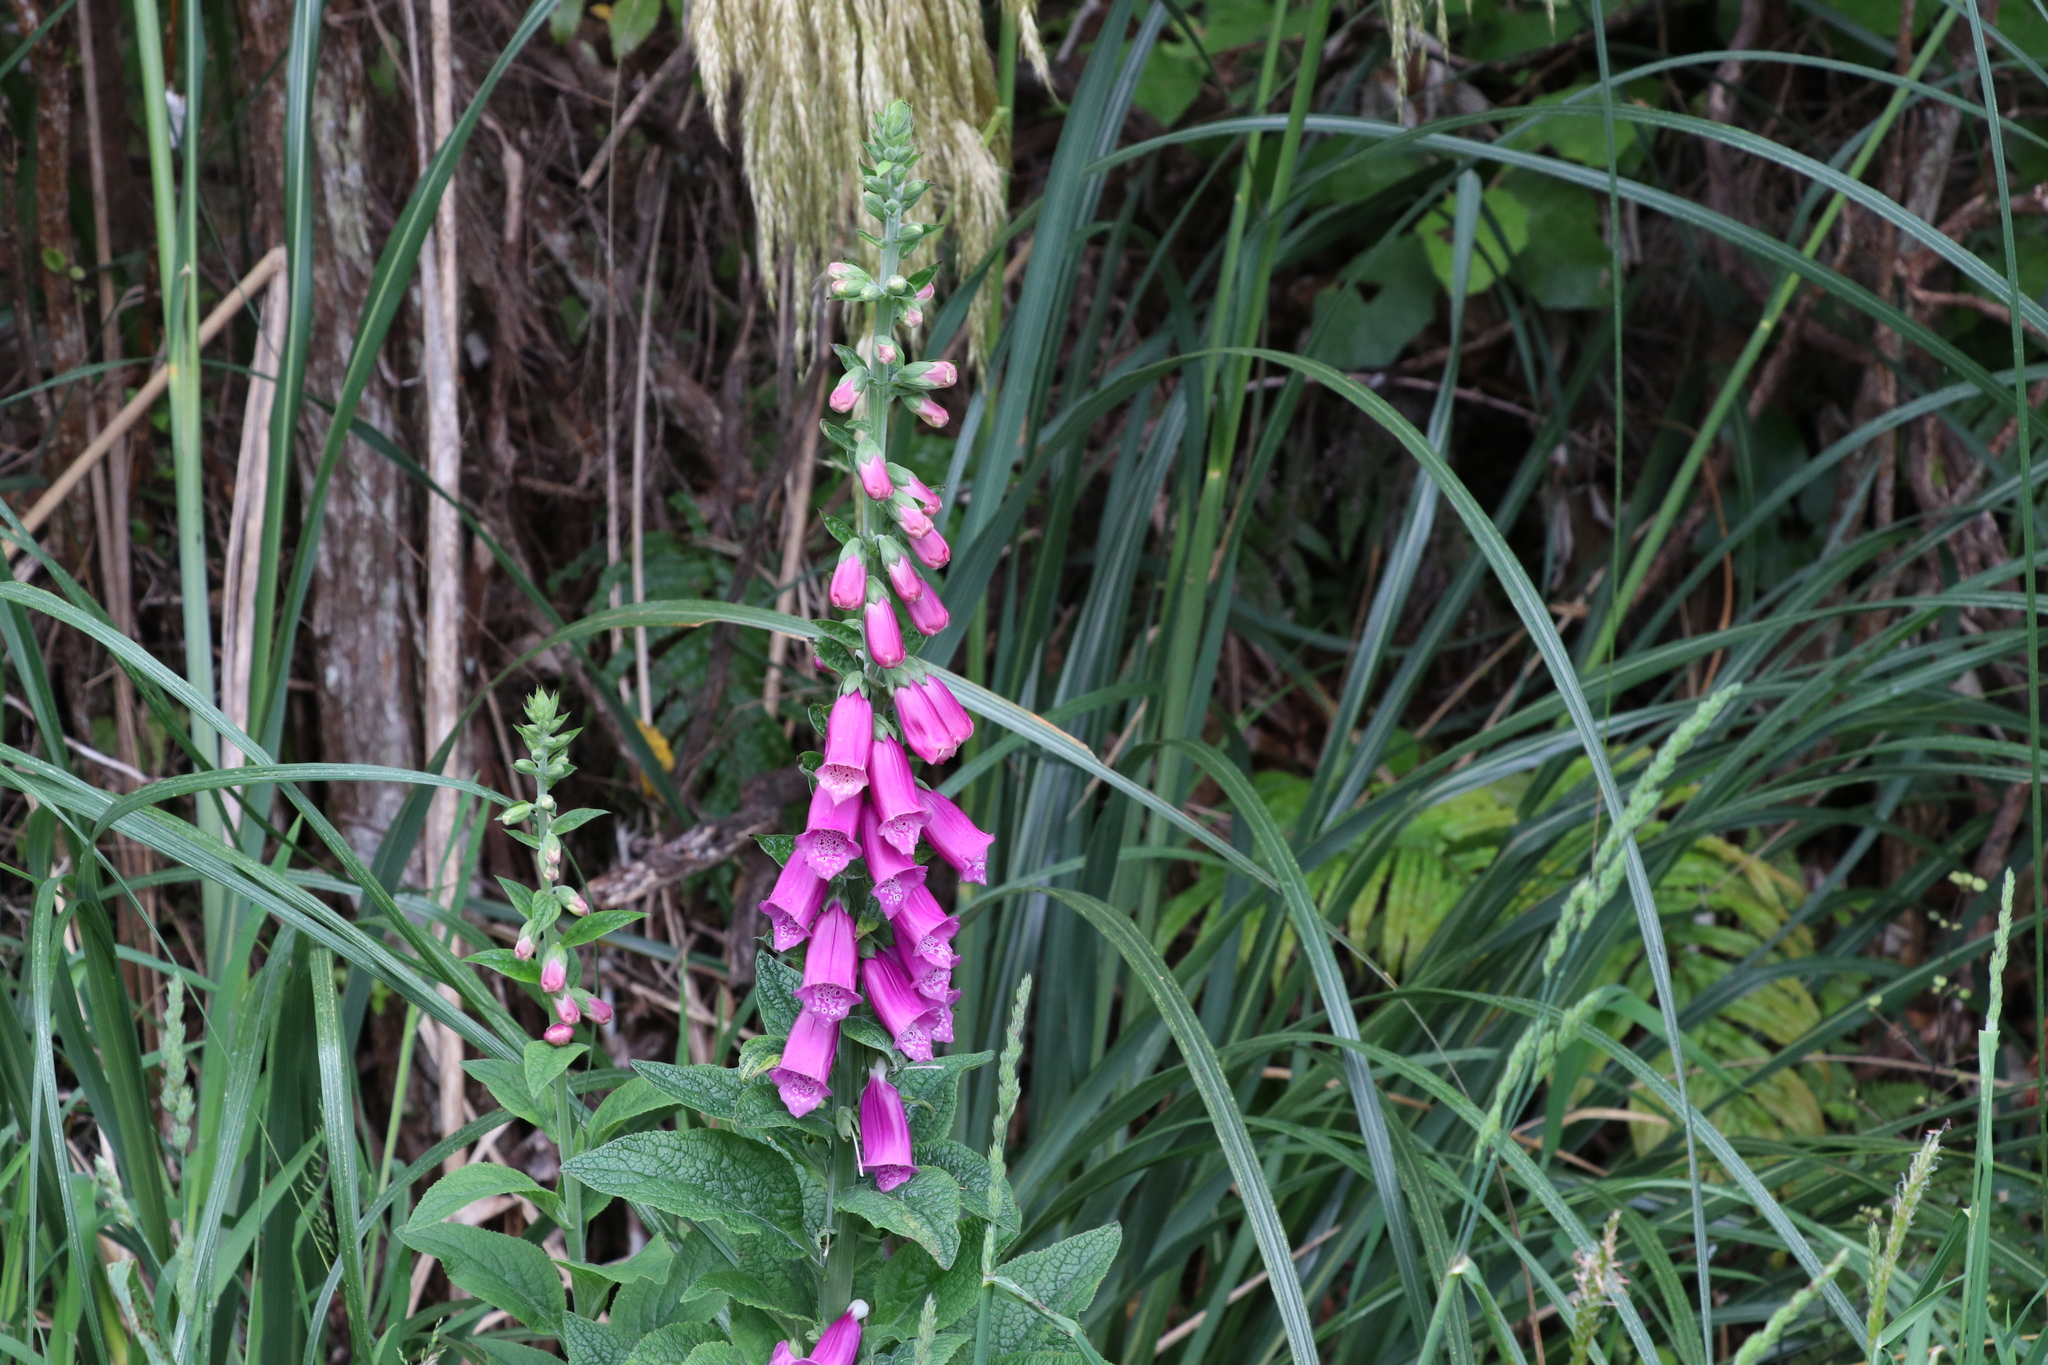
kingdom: Plantae
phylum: Tracheophyta
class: Magnoliopsida
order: Lamiales
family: Plantaginaceae
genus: Digitalis
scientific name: Digitalis purpurea
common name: Foxglove
